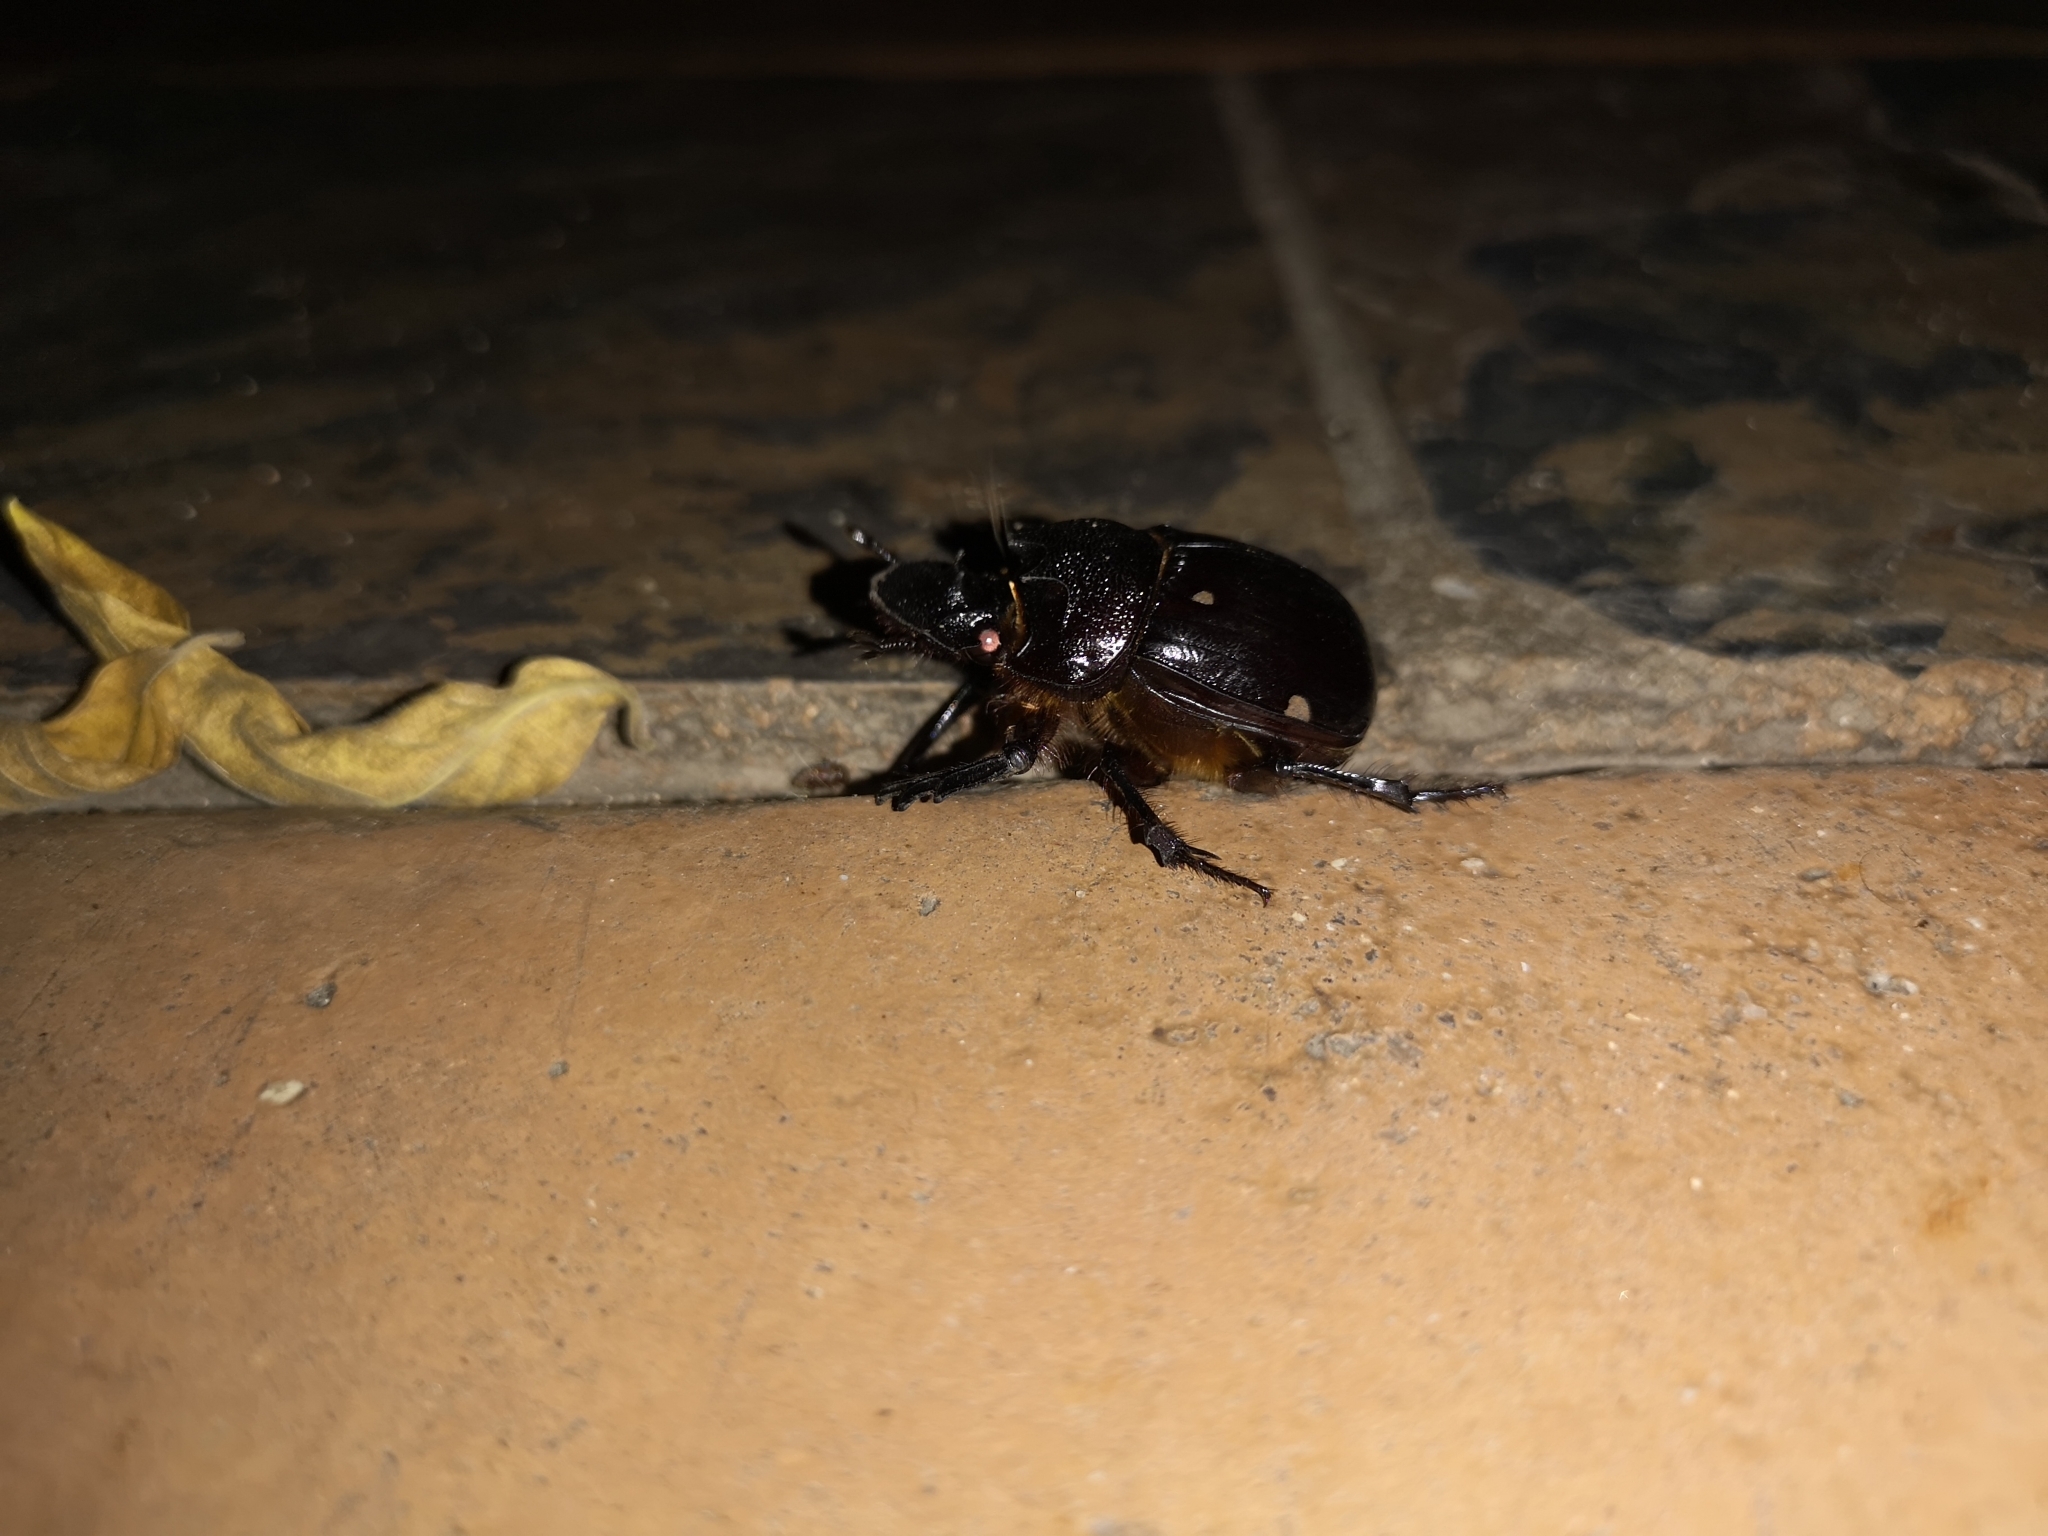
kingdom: Animalia
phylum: Arthropoda
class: Insecta
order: Coleoptera
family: Scarabaeidae
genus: Heliocopris
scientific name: Heliocopris neptunus
